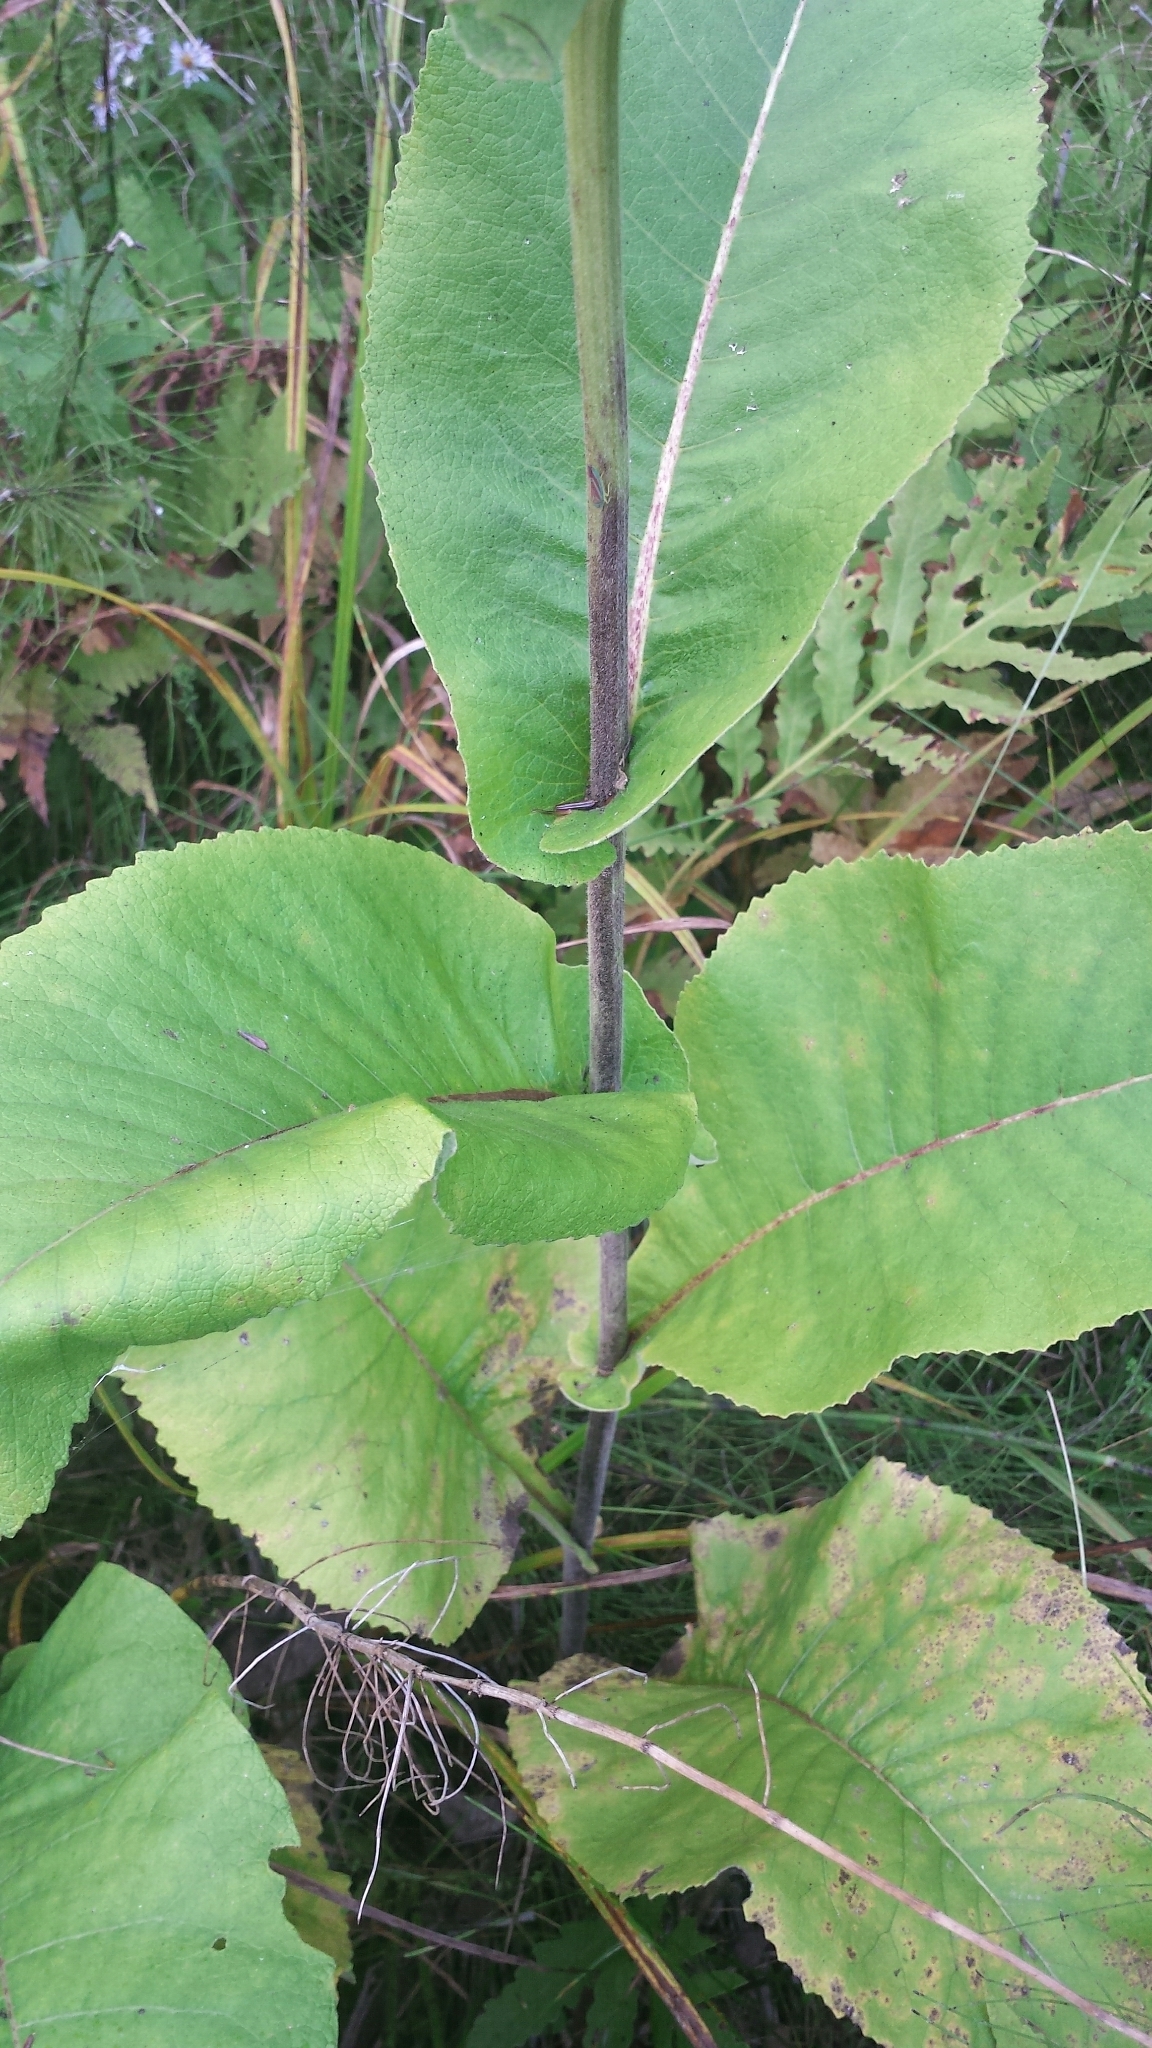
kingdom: Plantae
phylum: Tracheophyta
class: Magnoliopsida
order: Asterales
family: Asteraceae
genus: Inula
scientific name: Inula helenium
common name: Elecampane
